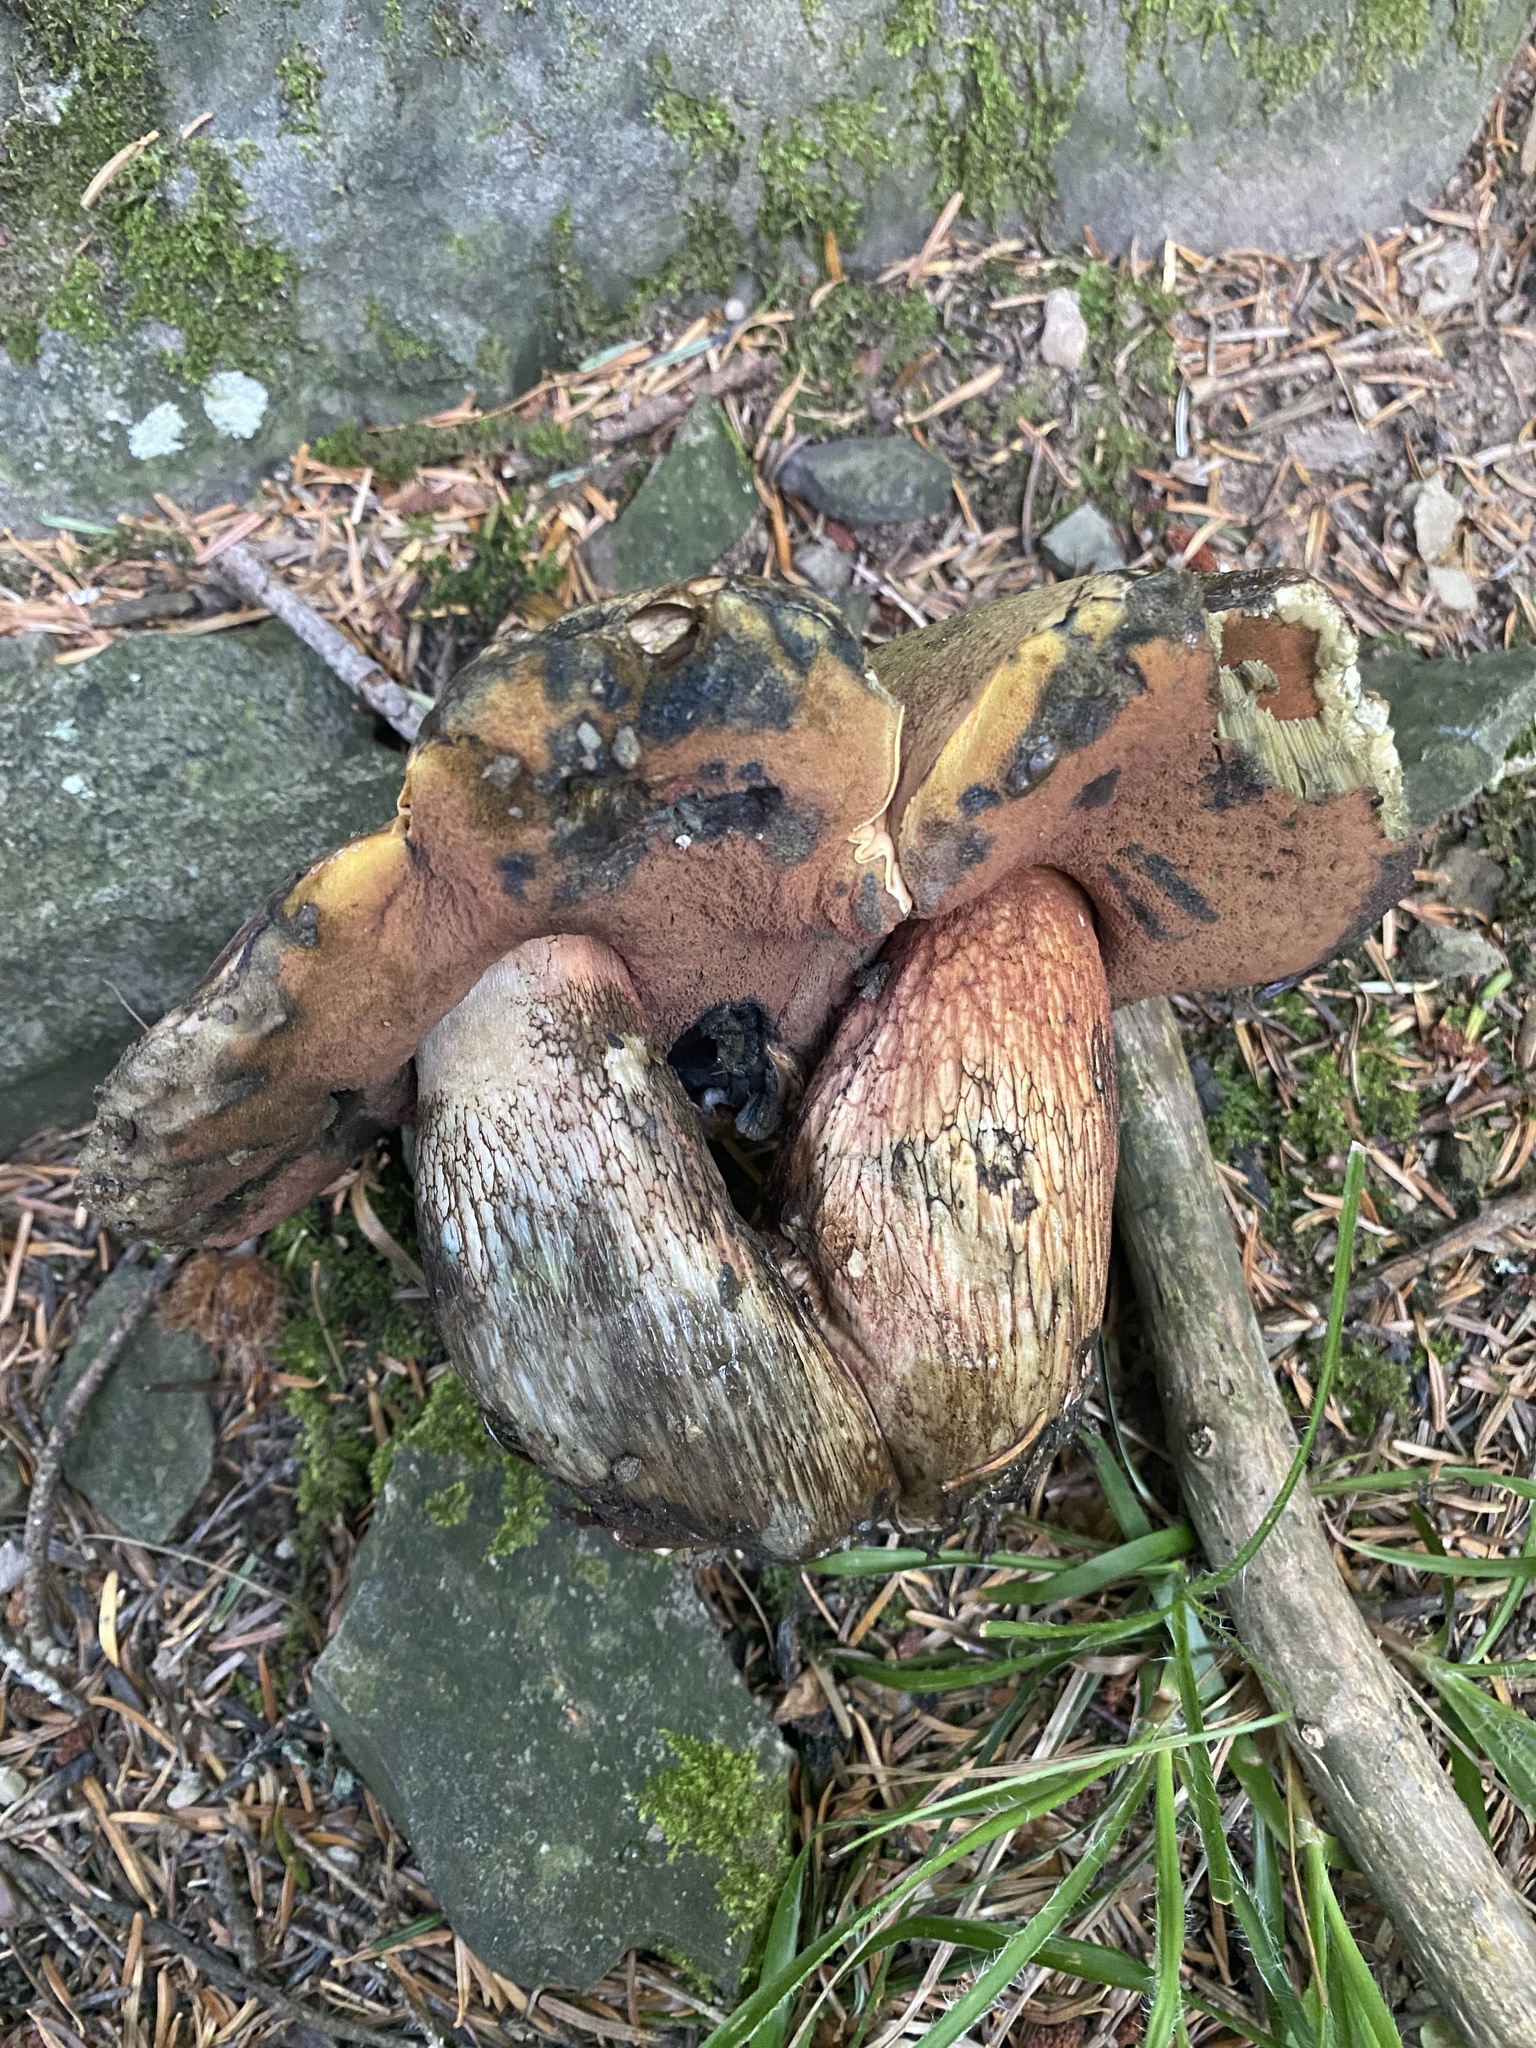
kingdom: Fungi
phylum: Basidiomycota
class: Agaricomycetes
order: Boletales
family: Boletaceae
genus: Suillellus
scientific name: Suillellus luridus
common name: Lurid bolete
